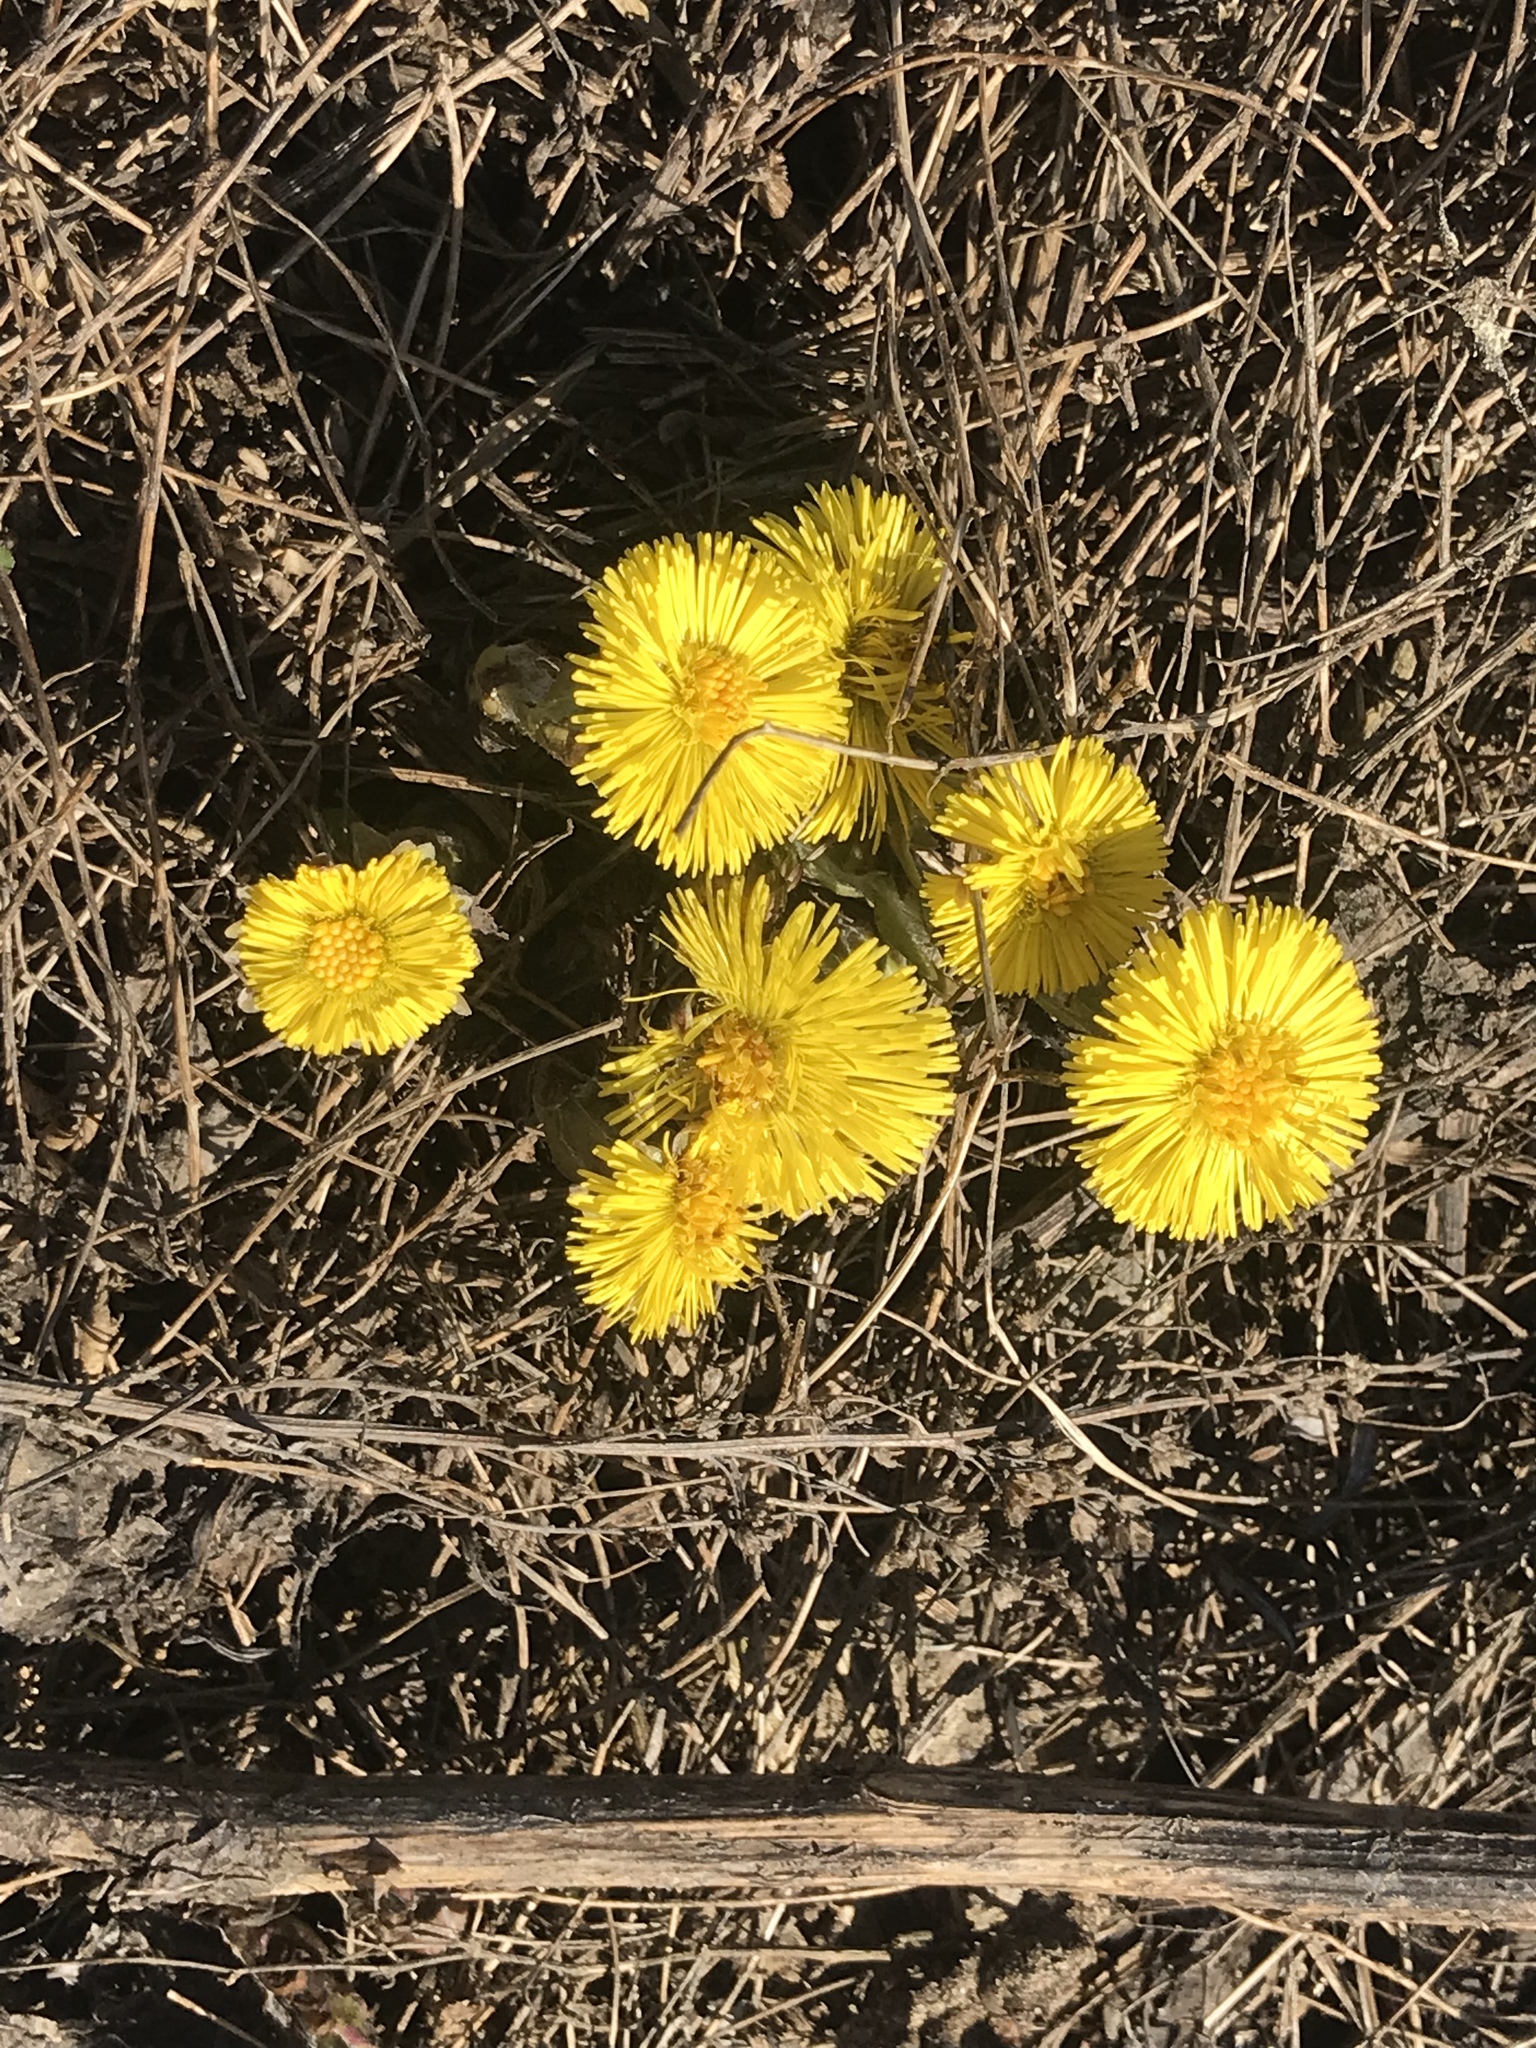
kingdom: Plantae
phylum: Tracheophyta
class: Magnoliopsida
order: Asterales
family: Asteraceae
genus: Tussilago
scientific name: Tussilago farfara
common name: Coltsfoot
